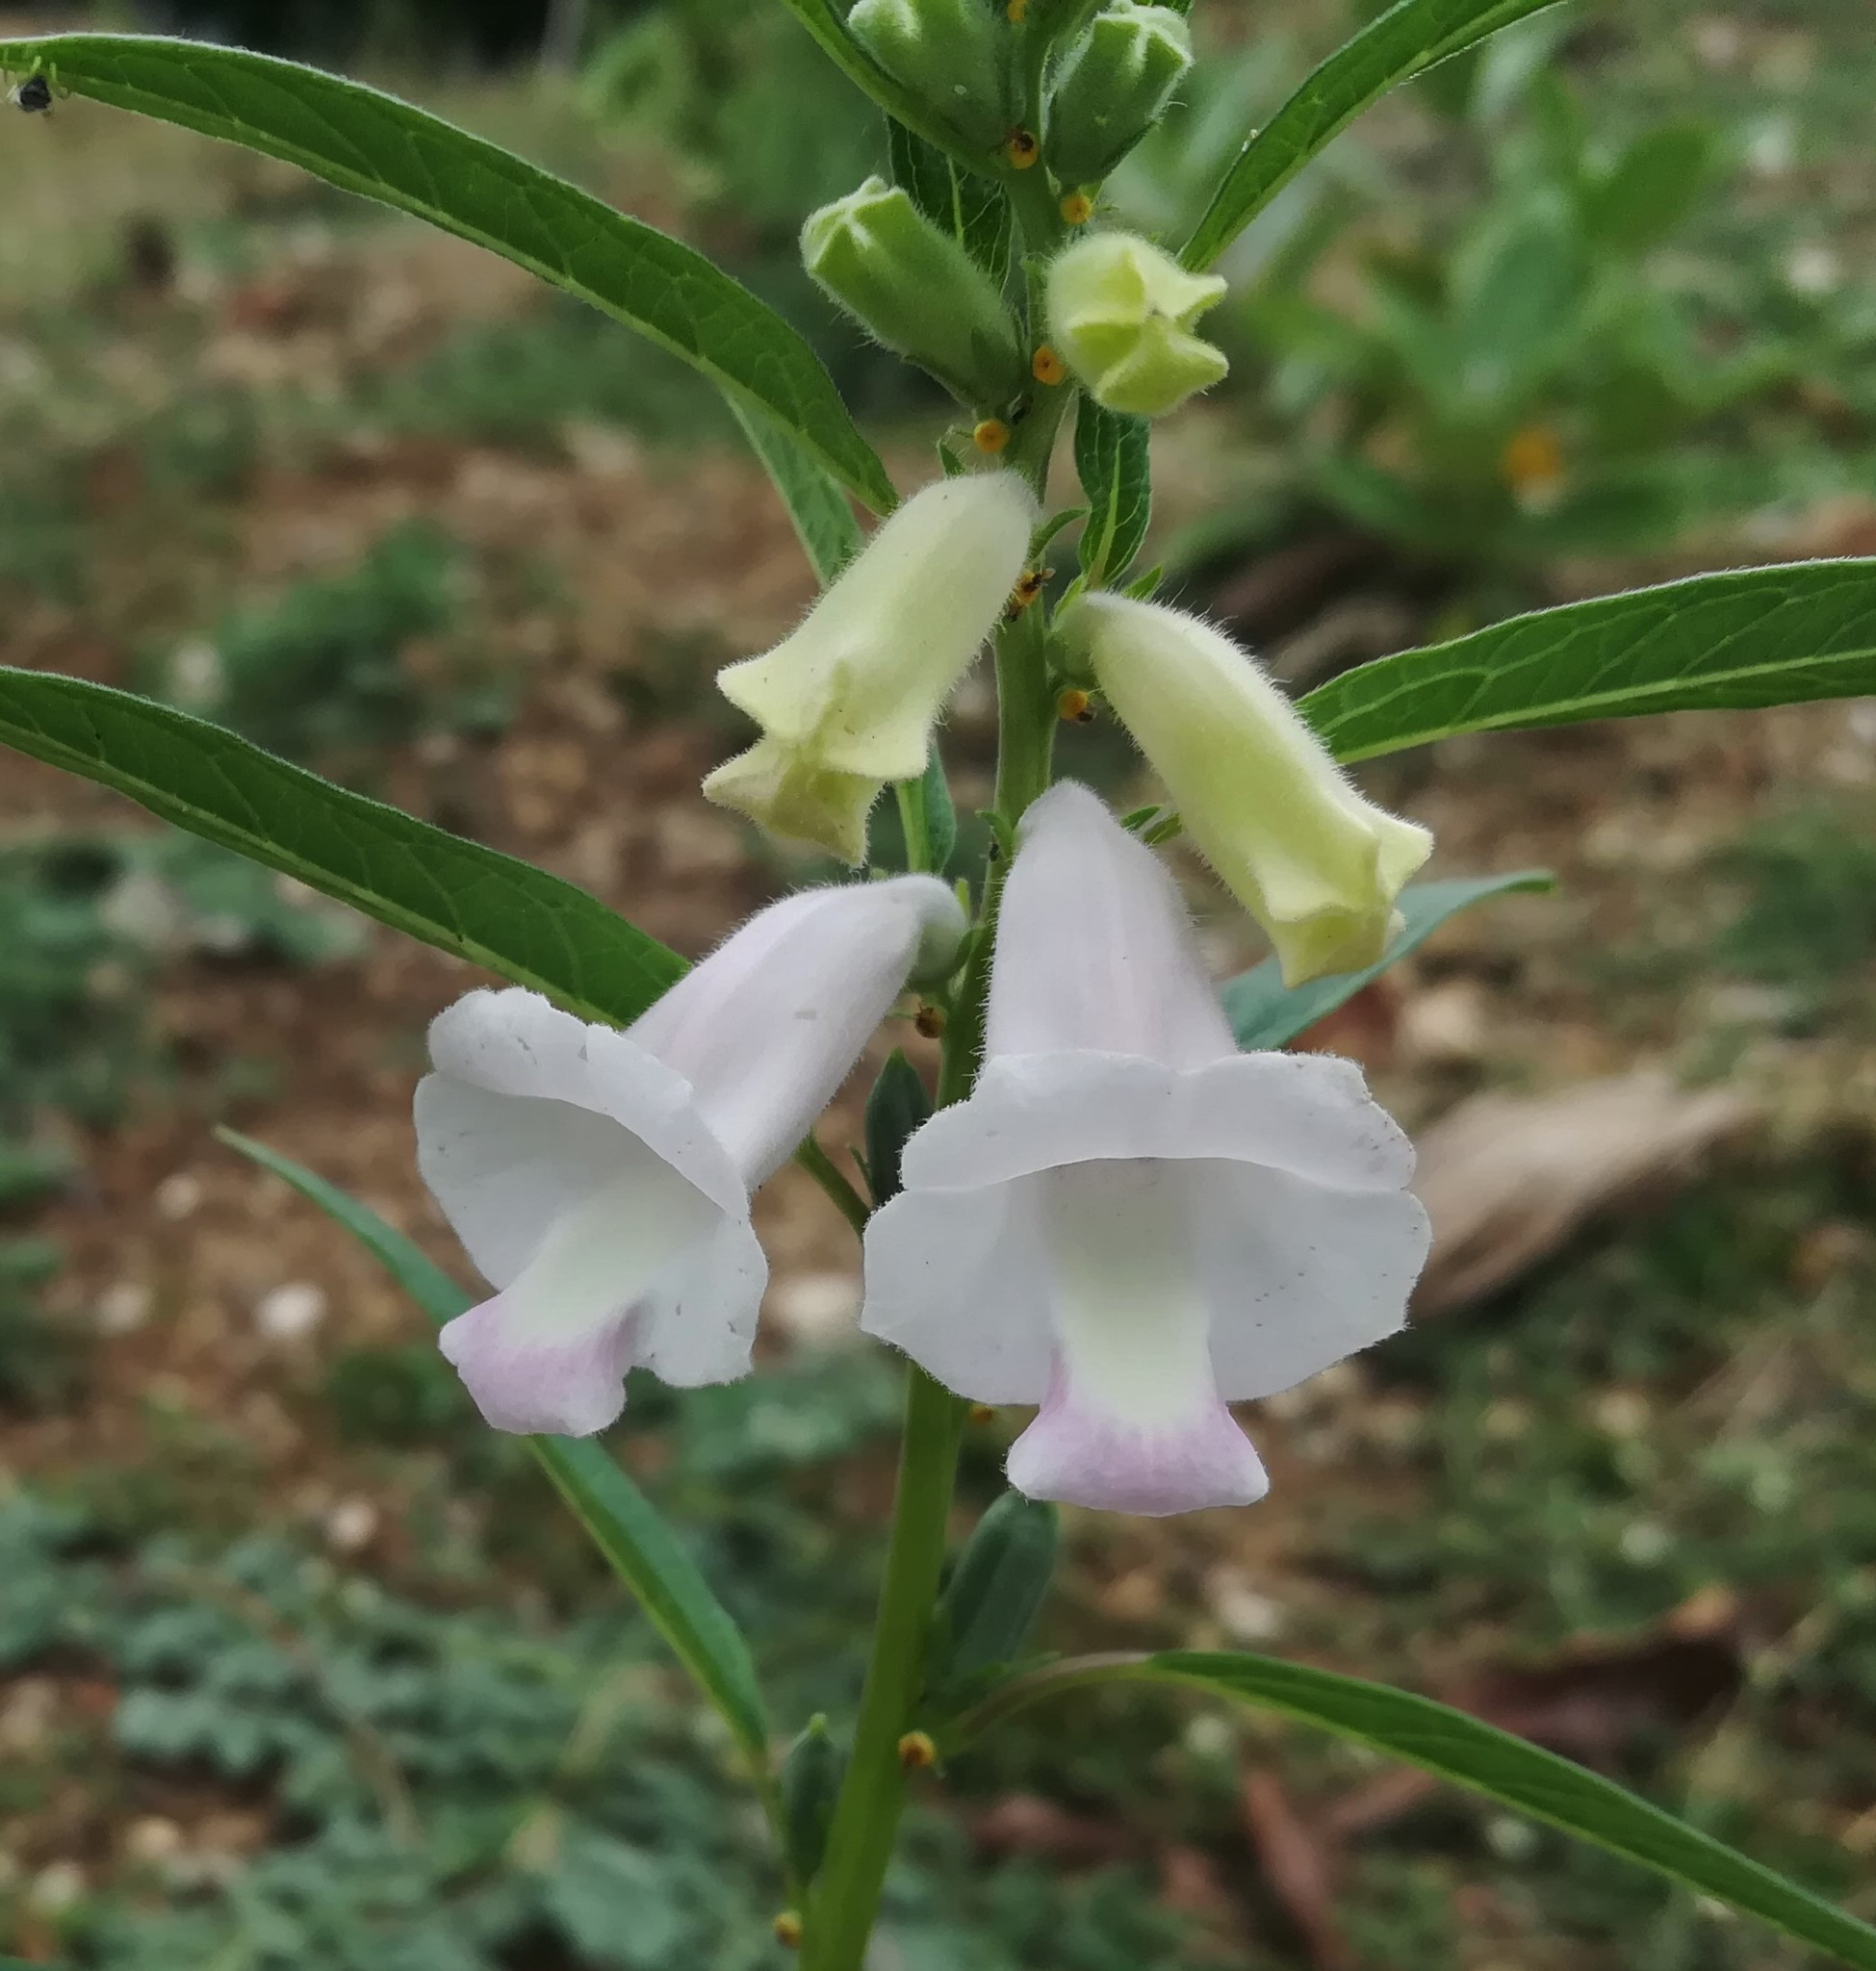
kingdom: Plantae
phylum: Tracheophyta
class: Magnoliopsida
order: Lamiales
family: Pedaliaceae
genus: Sesamum
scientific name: Sesamum indicum
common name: Sesame
